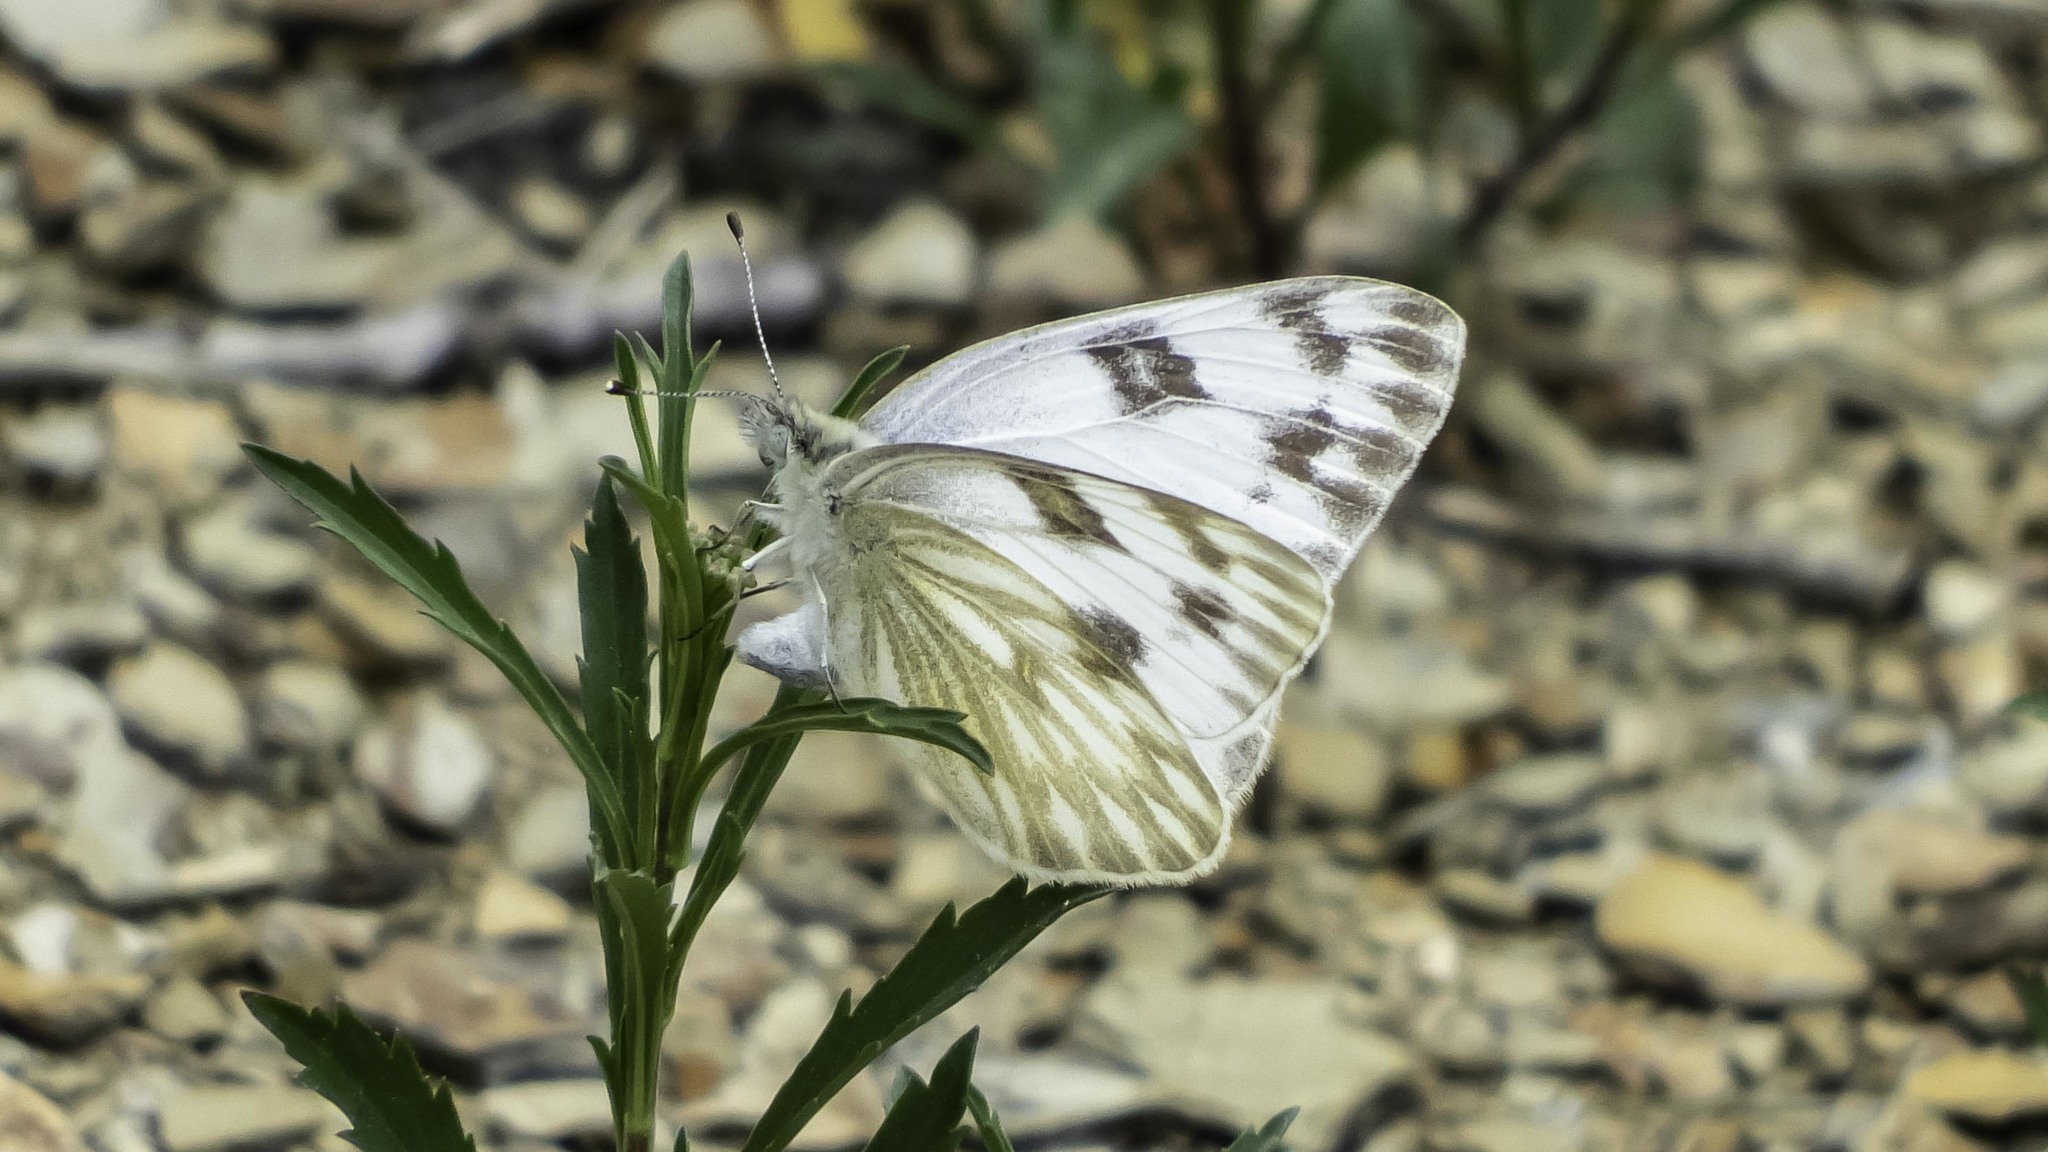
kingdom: Animalia
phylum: Arthropoda
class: Insecta
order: Lepidoptera
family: Pieridae
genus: Pontia
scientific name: Pontia protodice
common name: Checkered white
